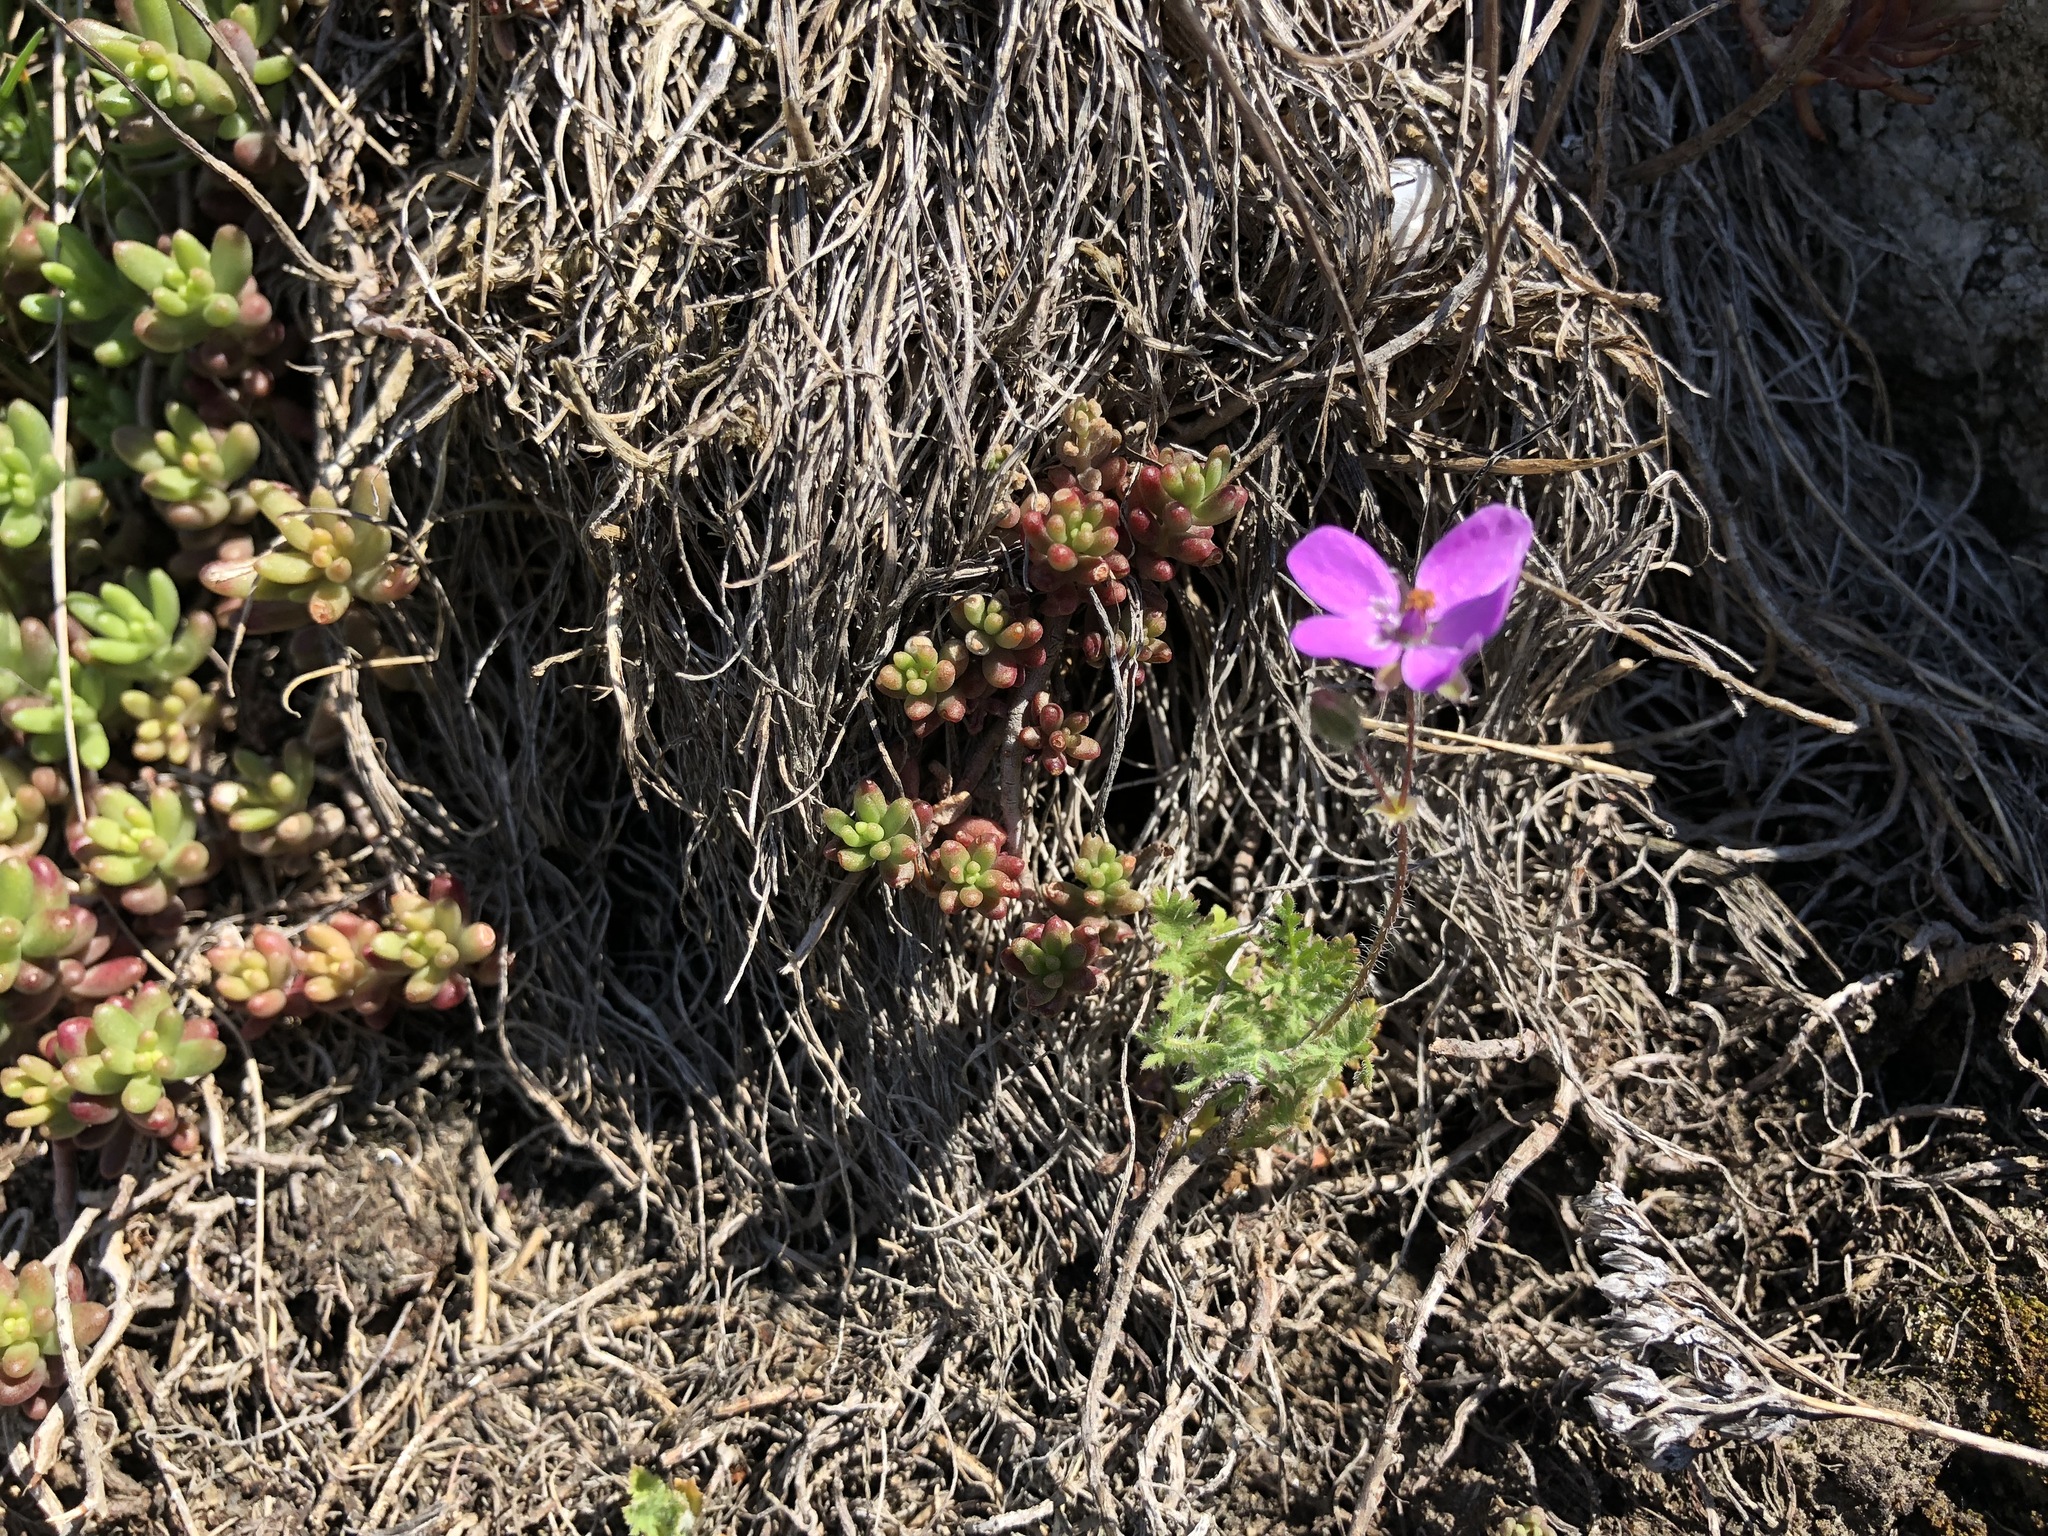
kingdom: Plantae
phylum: Tracheophyta
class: Magnoliopsida
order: Geraniales
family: Geraniaceae
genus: Erodium
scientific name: Erodium cicutarium
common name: Common stork's-bill
